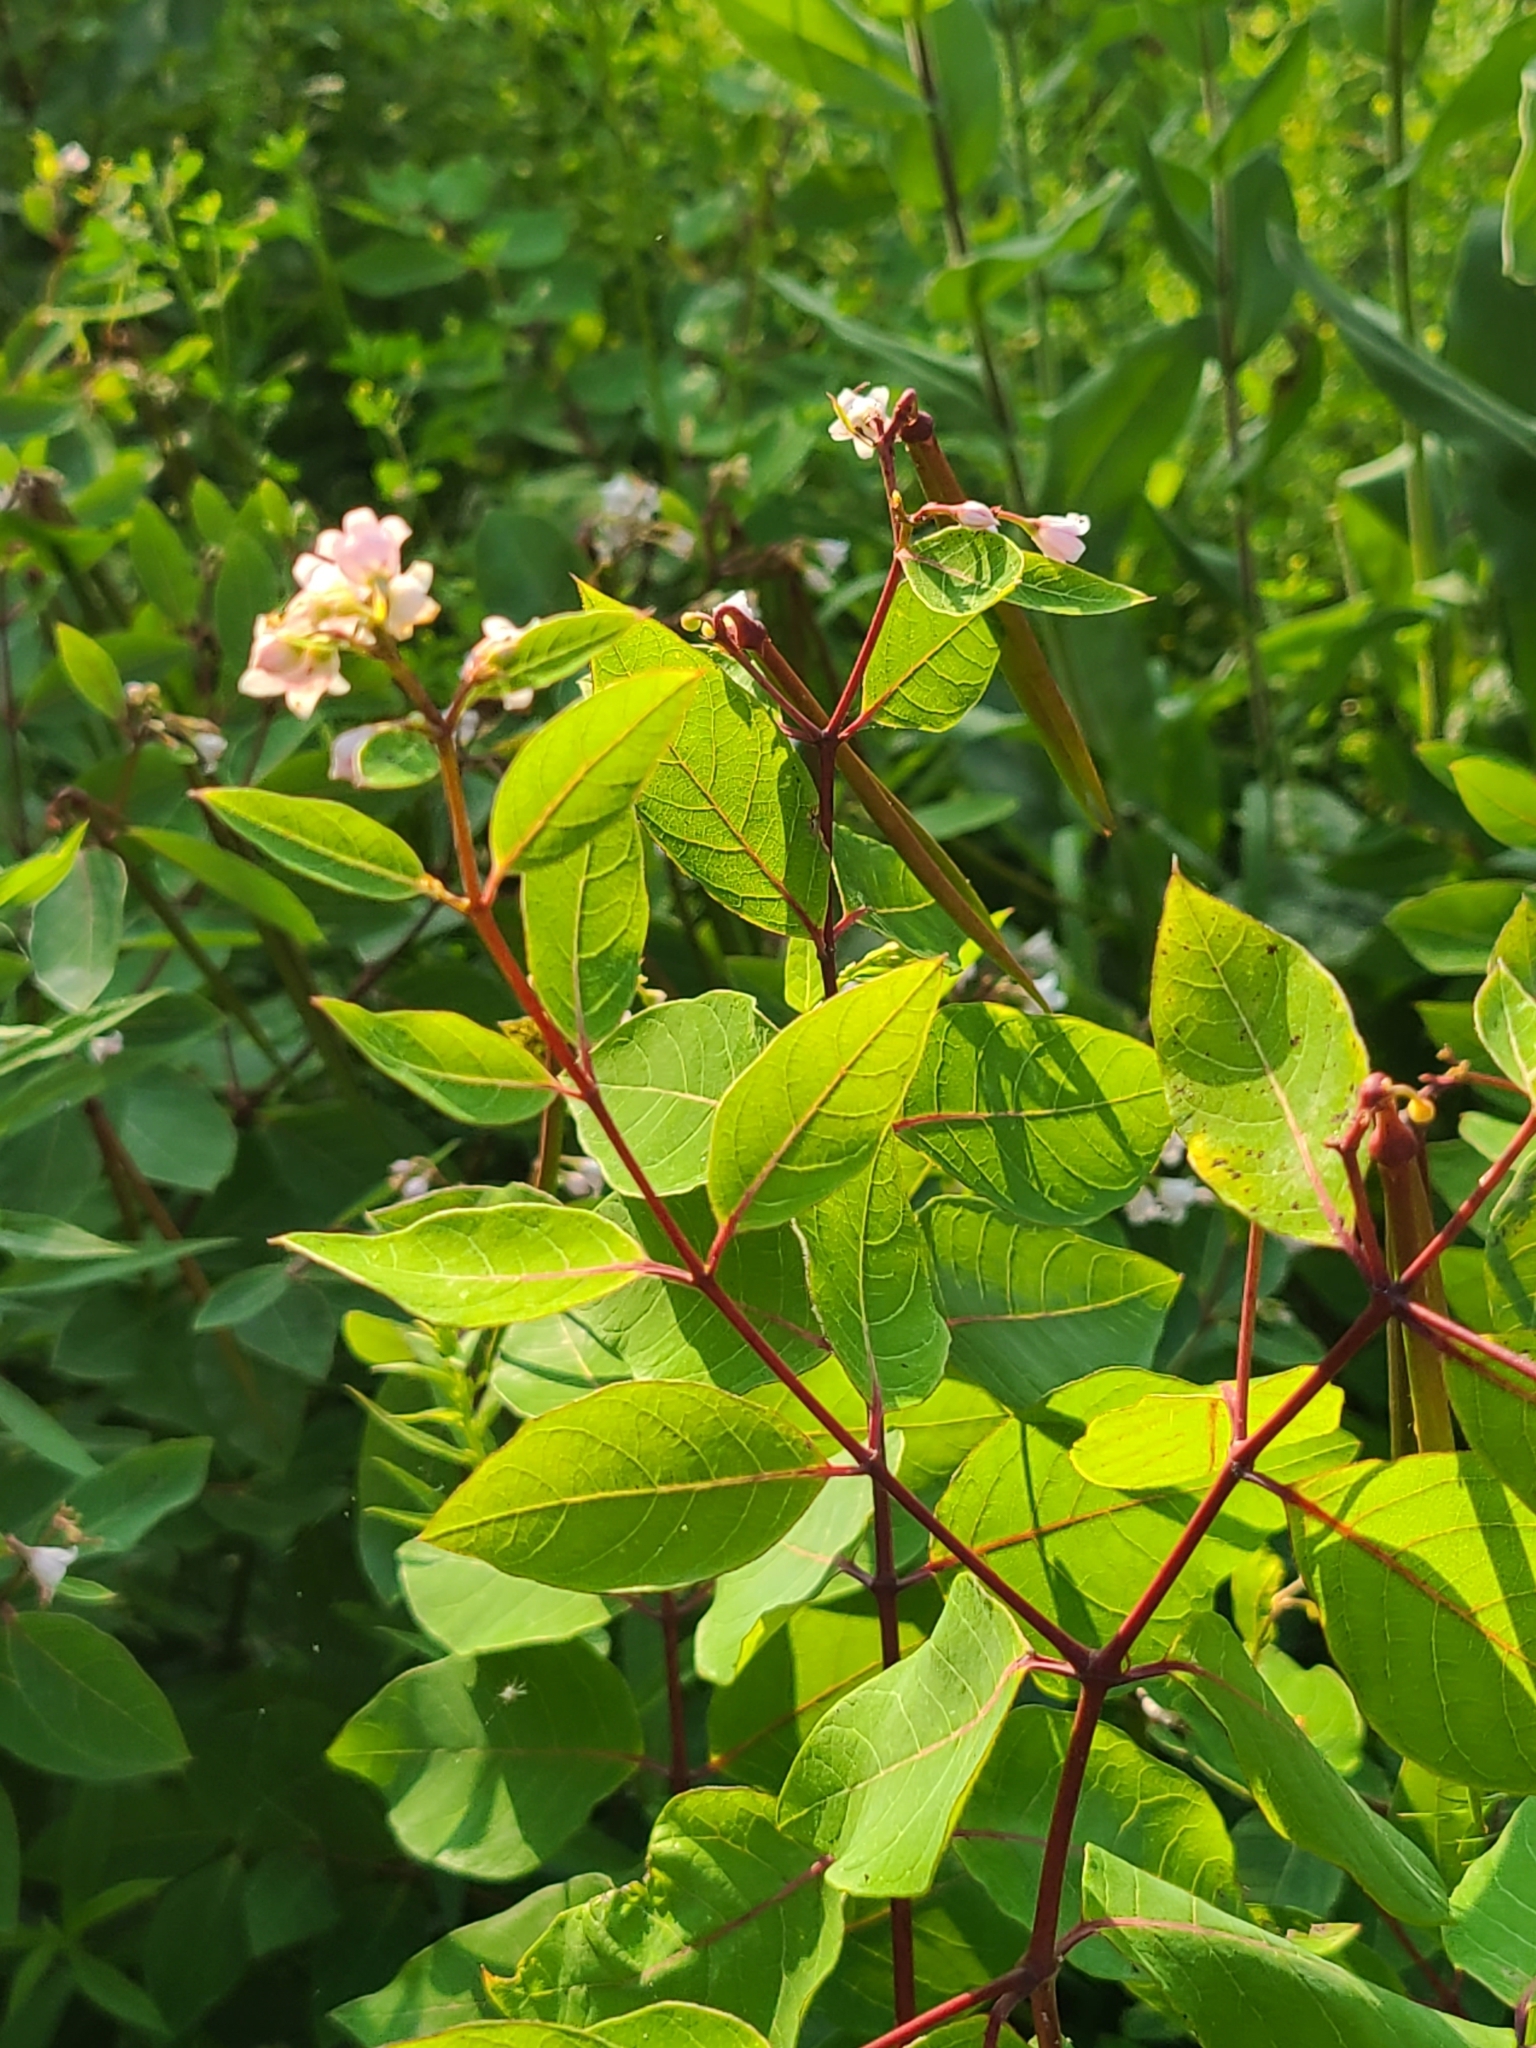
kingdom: Plantae
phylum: Tracheophyta
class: Magnoliopsida
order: Gentianales
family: Apocynaceae
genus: Apocynum
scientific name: Apocynum androsaemifolium
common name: Spreading dogbane
